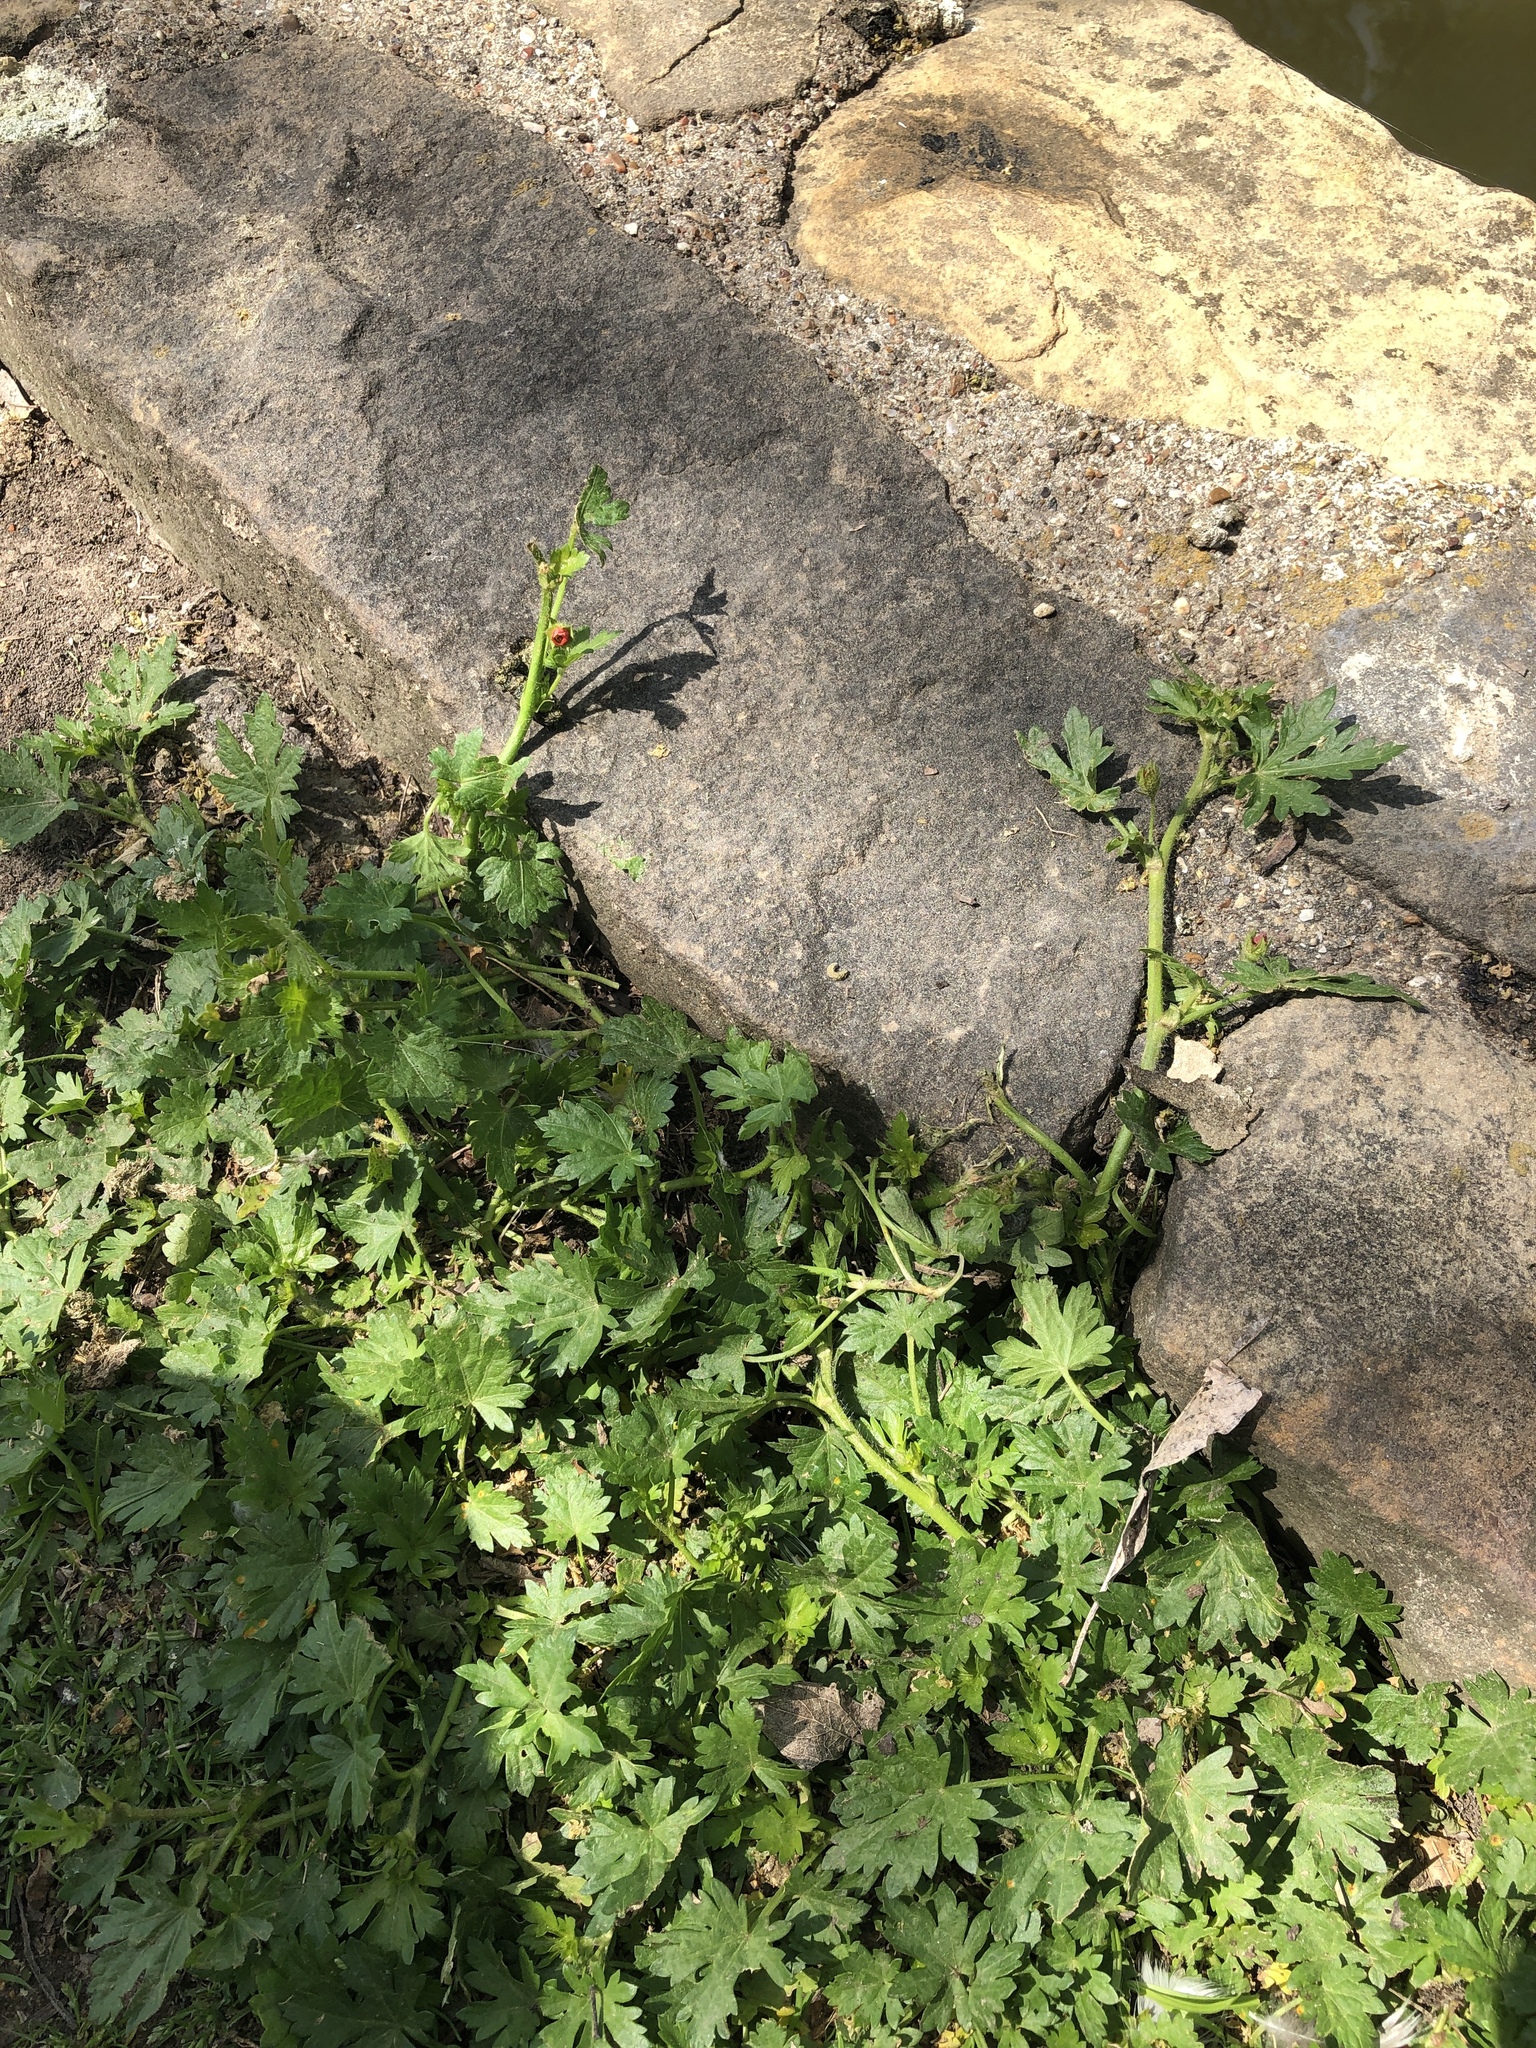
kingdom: Plantae
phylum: Tracheophyta
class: Magnoliopsida
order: Malvales
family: Malvaceae
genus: Modiola
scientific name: Modiola caroliniana
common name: Carolina bristlemallow
